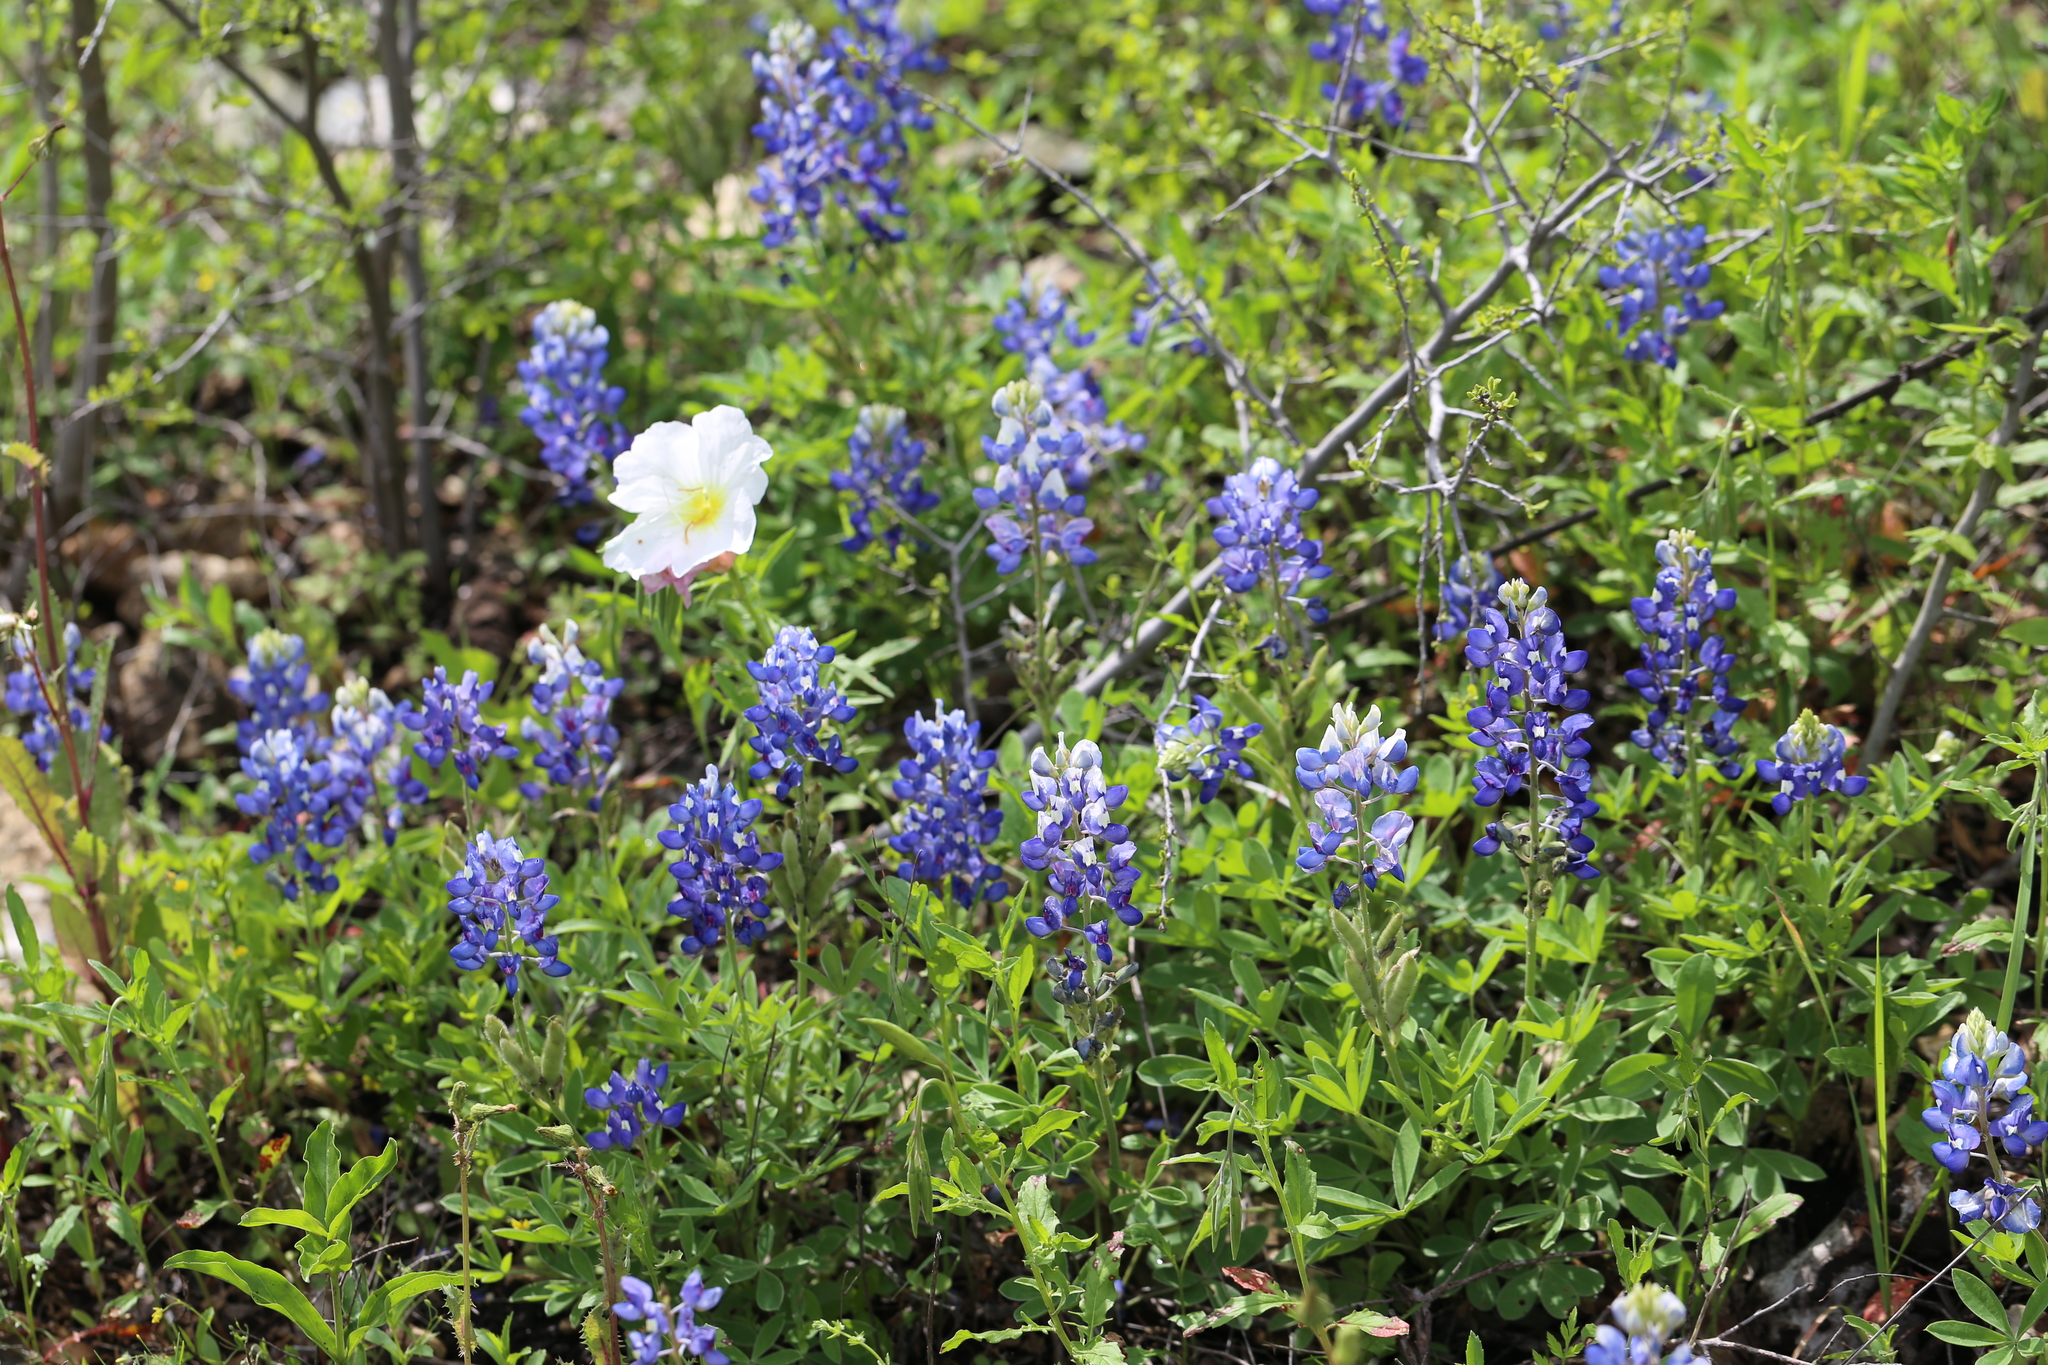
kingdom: Plantae
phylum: Tracheophyta
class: Magnoliopsida
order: Fabales
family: Fabaceae
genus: Lupinus
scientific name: Lupinus texensis
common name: Texas bluebonnet
